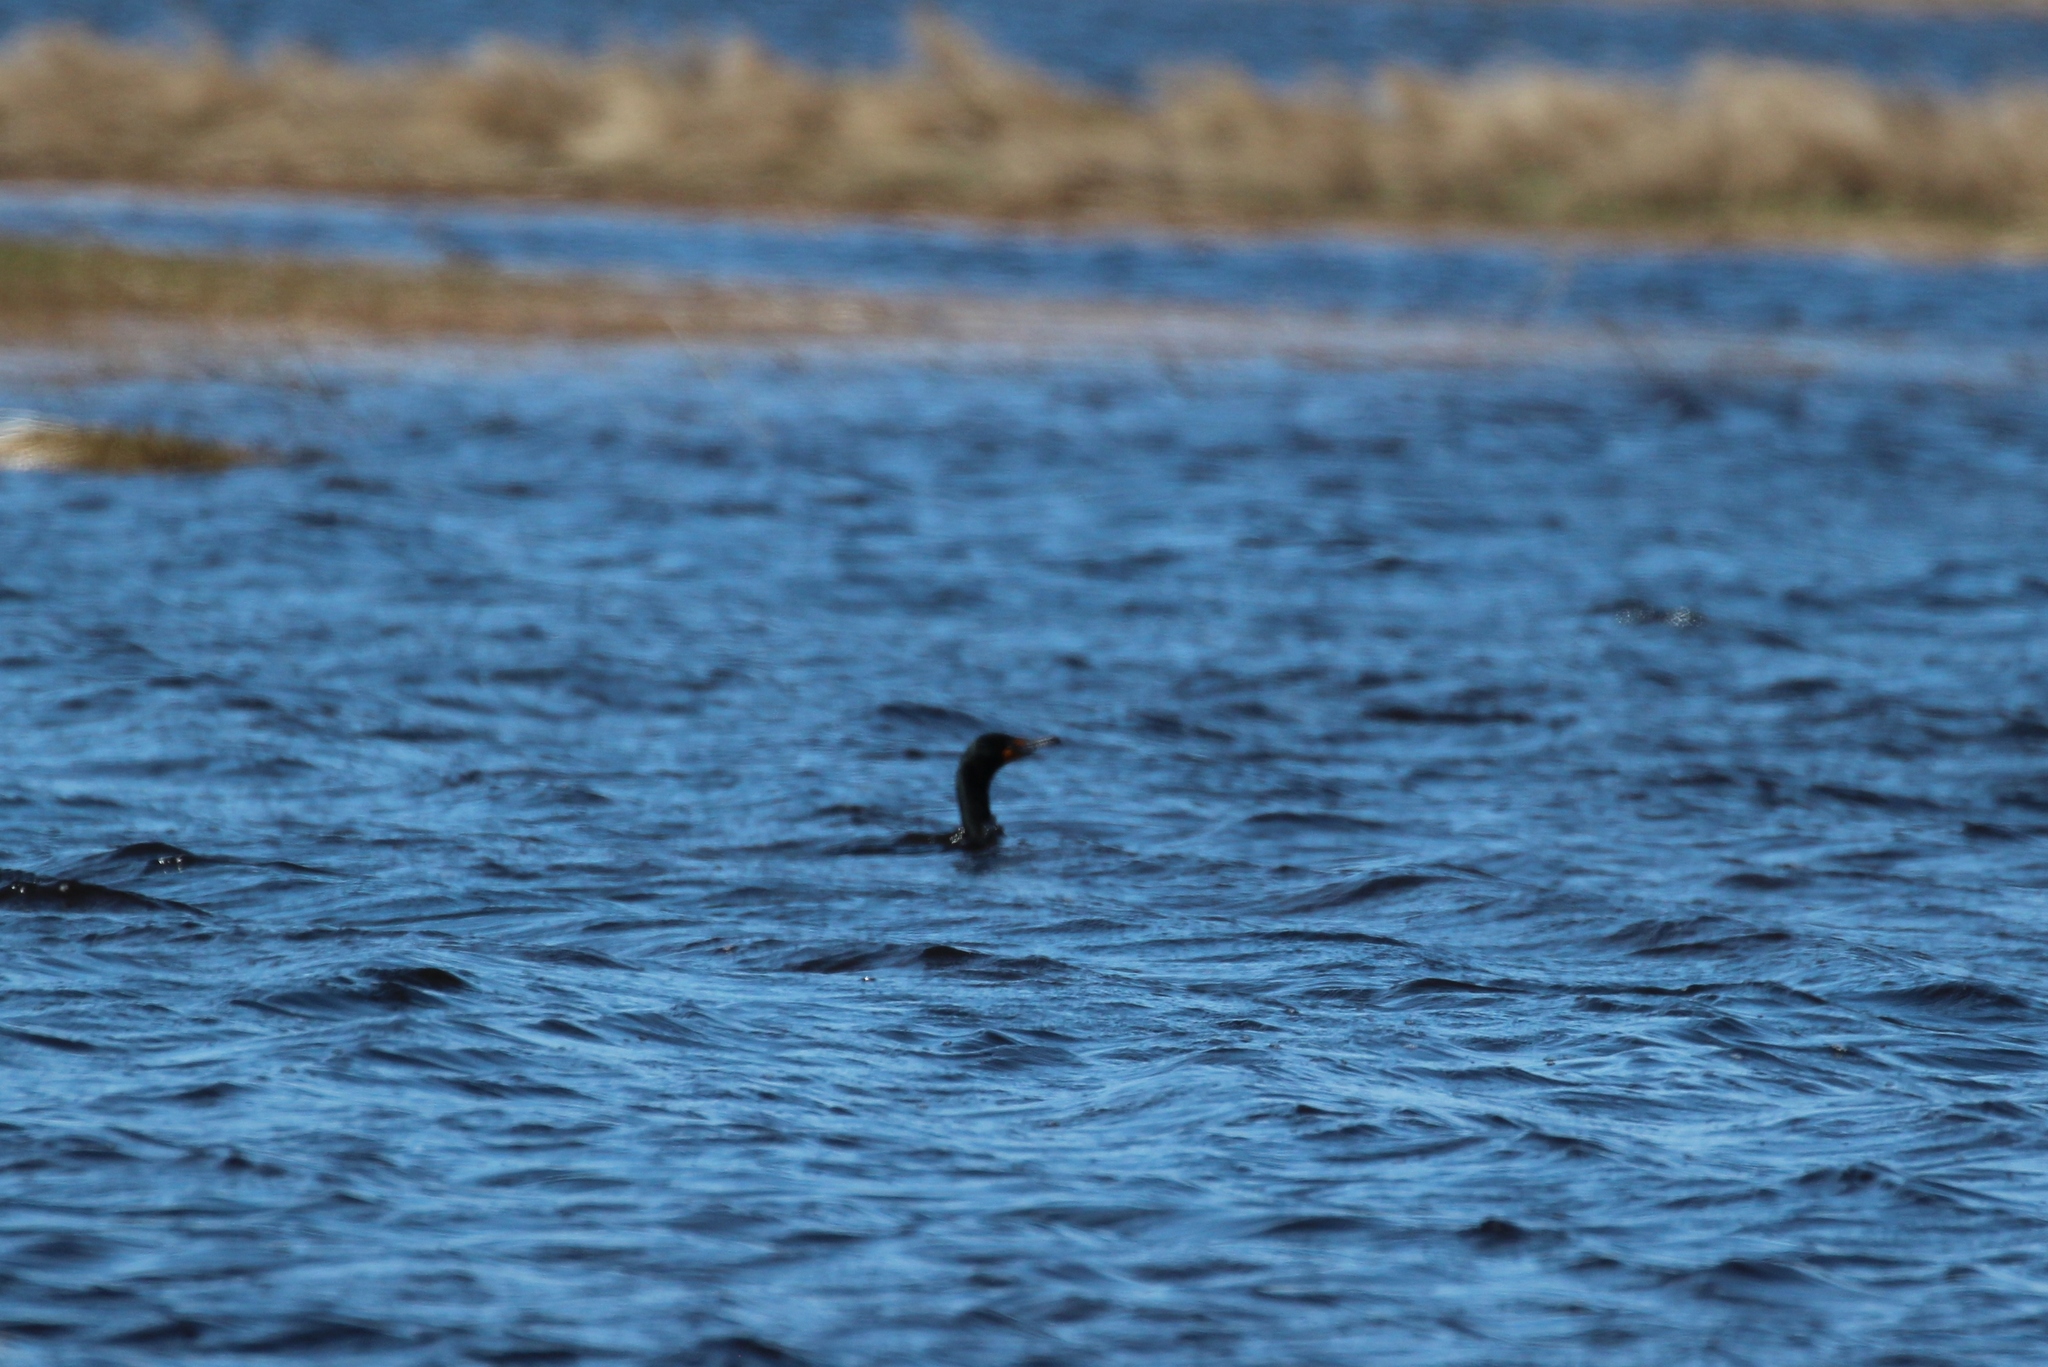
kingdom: Animalia
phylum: Chordata
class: Aves
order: Suliformes
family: Phalacrocoracidae
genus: Phalacrocorax
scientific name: Phalacrocorax auritus
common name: Double-crested cormorant
